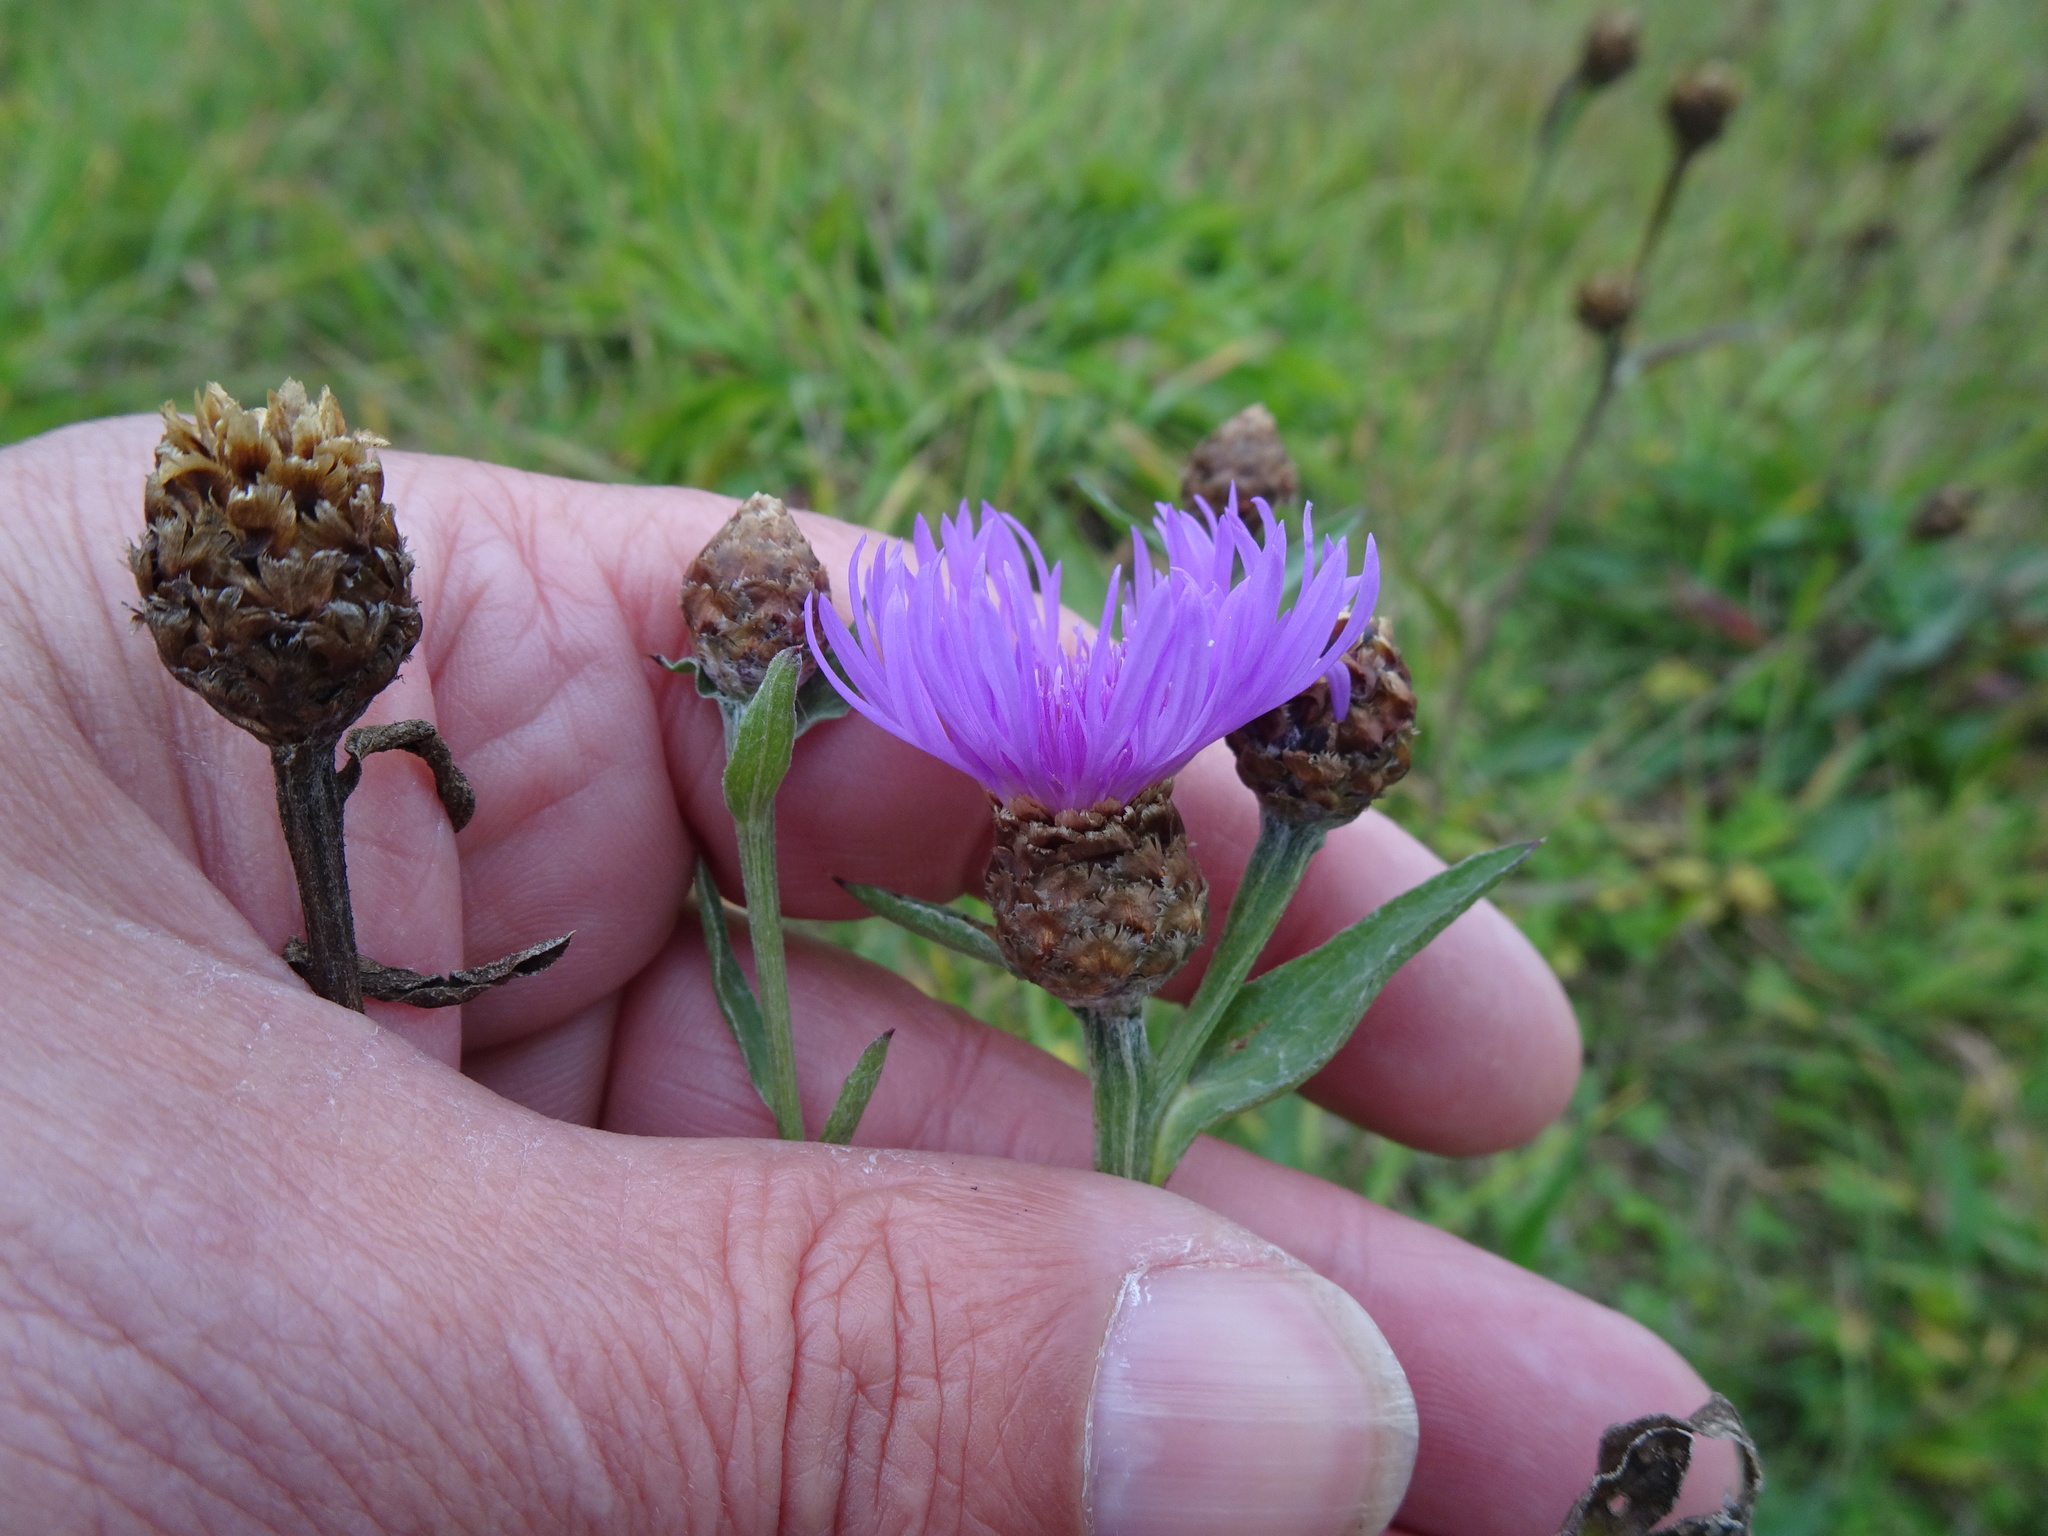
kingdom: Plantae
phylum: Tracheophyta
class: Magnoliopsida
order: Asterales
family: Asteraceae
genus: Centaurea
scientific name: Centaurea jacea
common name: Brown knapweed
